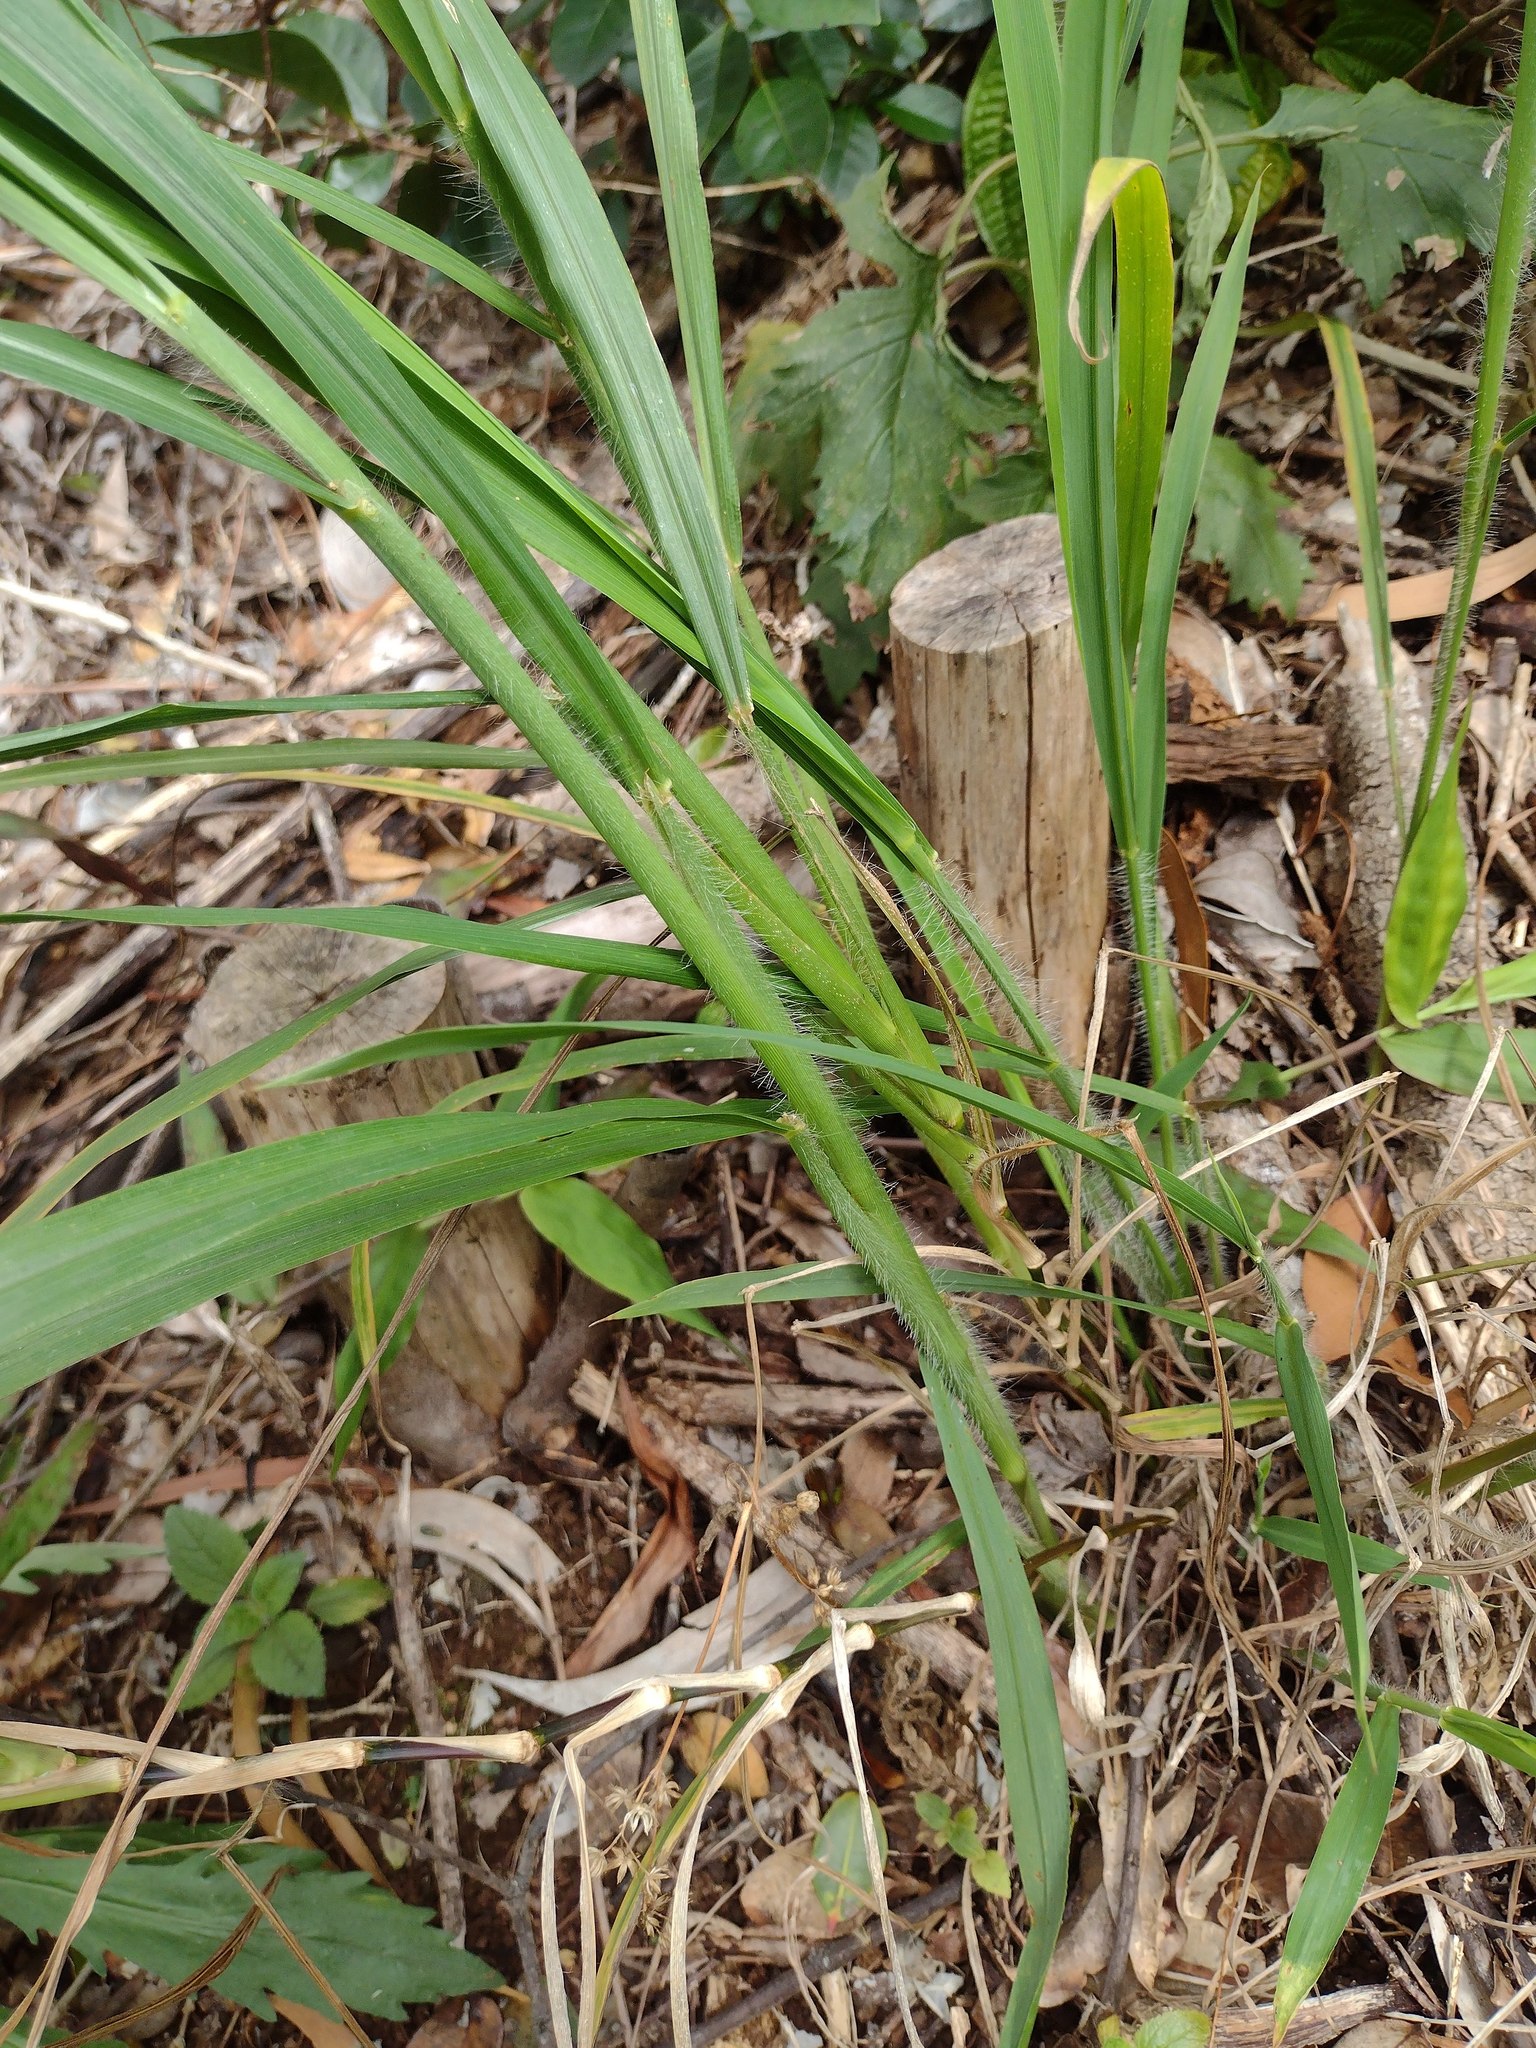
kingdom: Plantae
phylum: Tracheophyta
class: Liliopsida
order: Poales
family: Poaceae
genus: Megathyrsus
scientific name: Megathyrsus maximus
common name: Guineagrass
